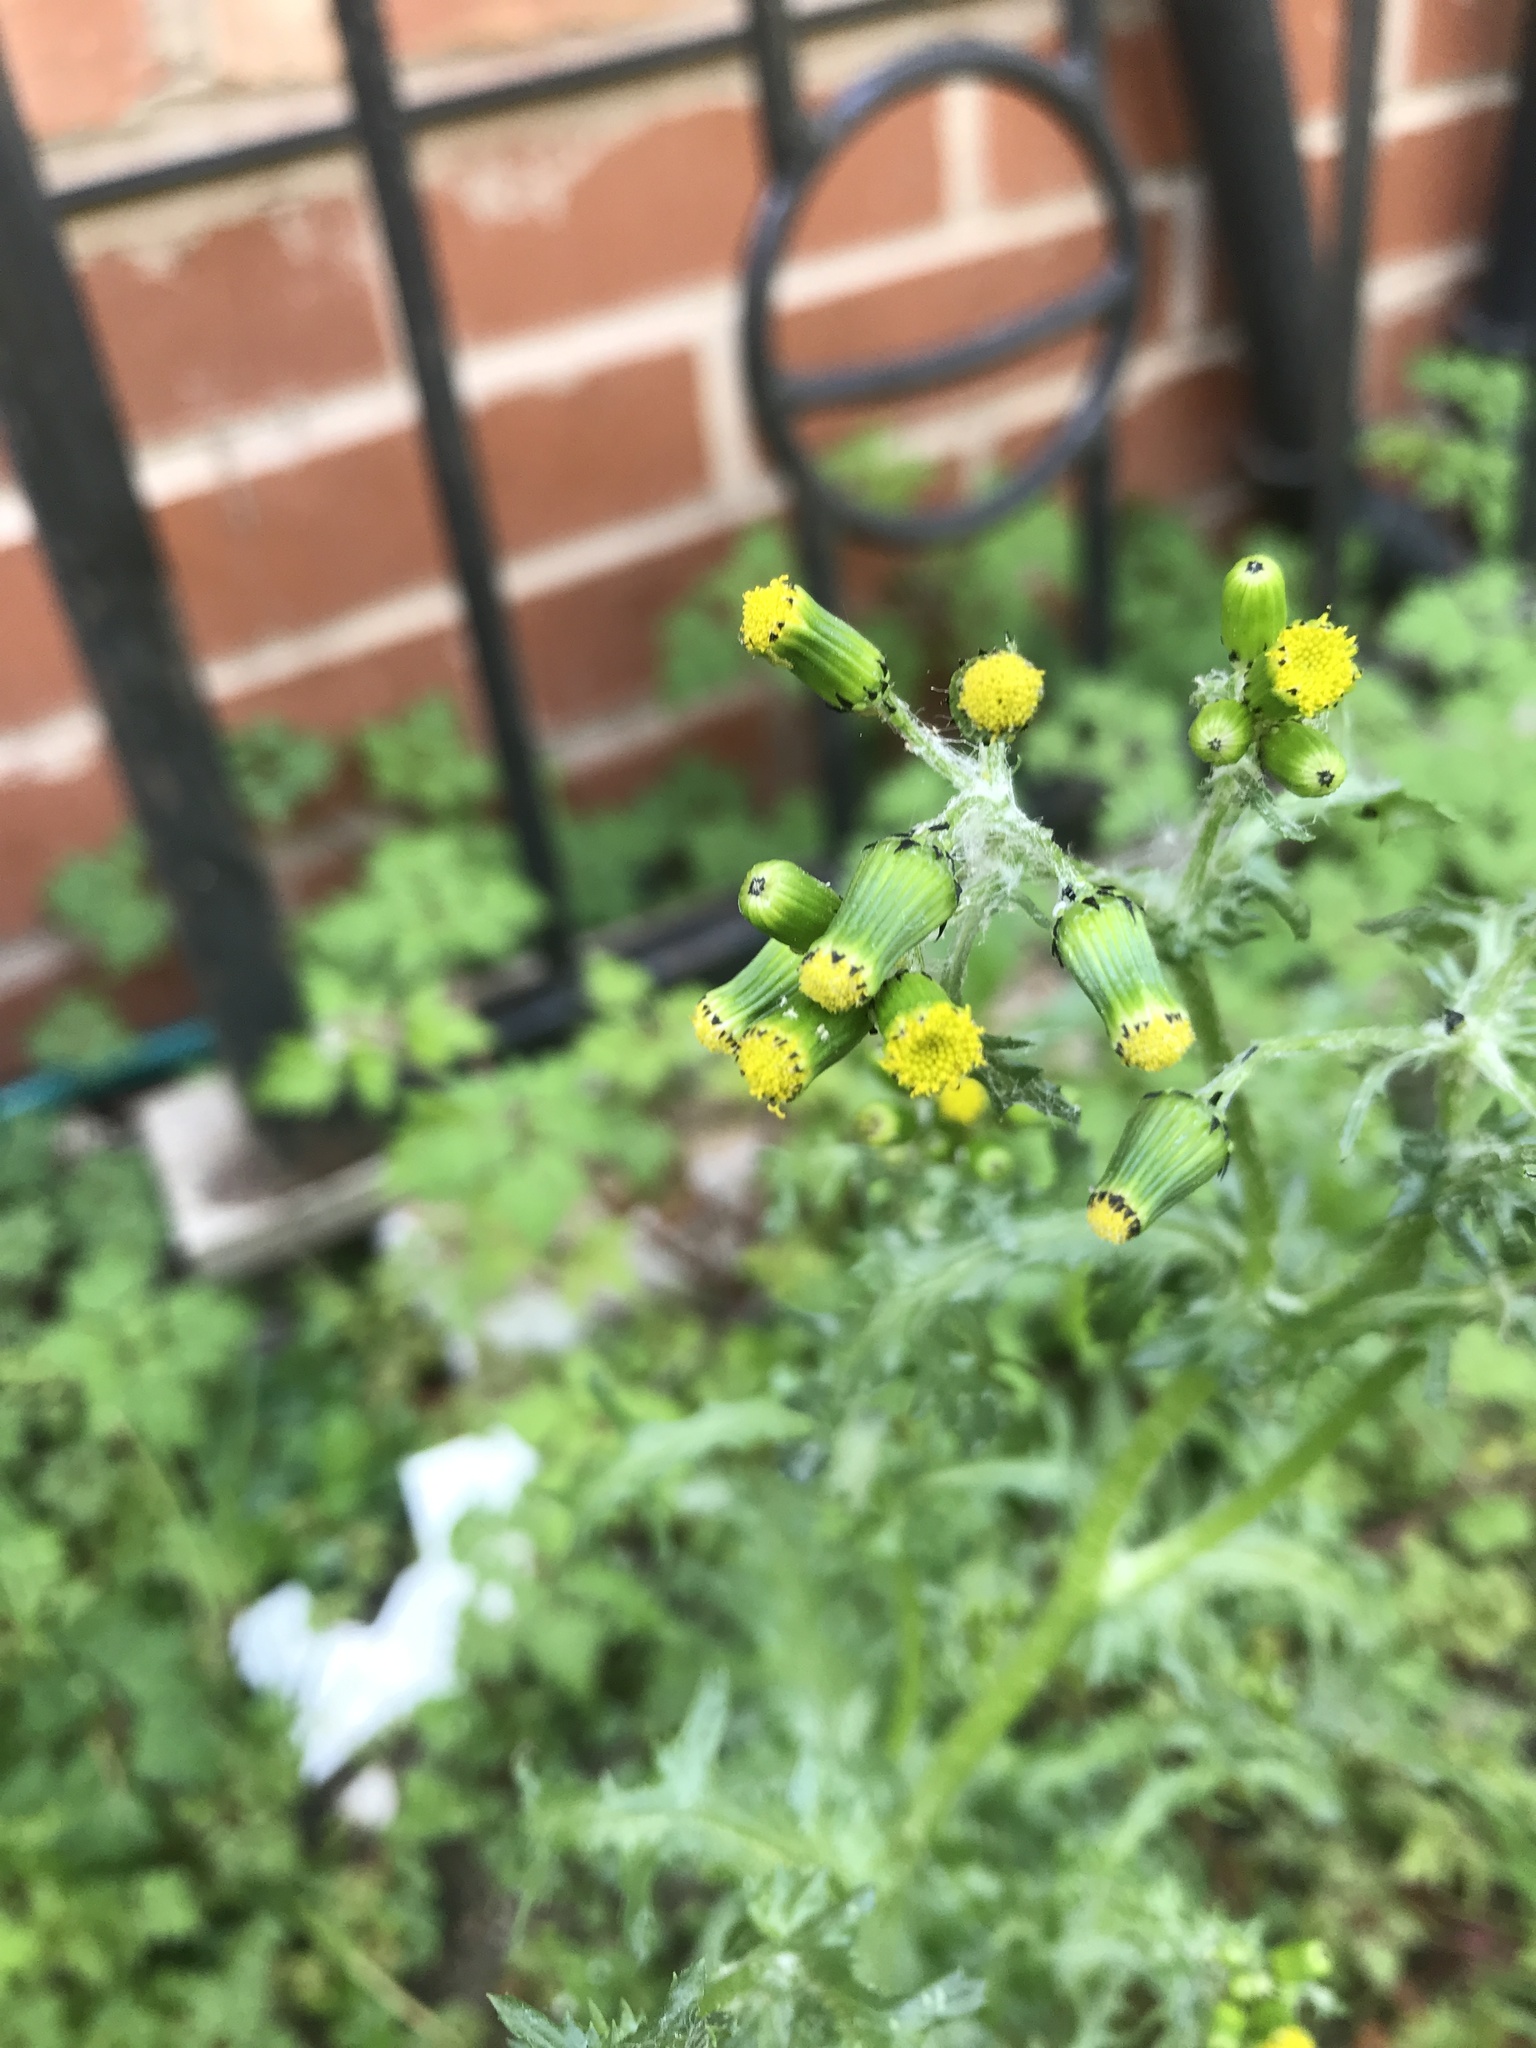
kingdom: Plantae
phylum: Tracheophyta
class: Magnoliopsida
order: Asterales
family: Asteraceae
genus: Senecio
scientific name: Senecio vulgaris
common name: Old-man-in-the-spring
